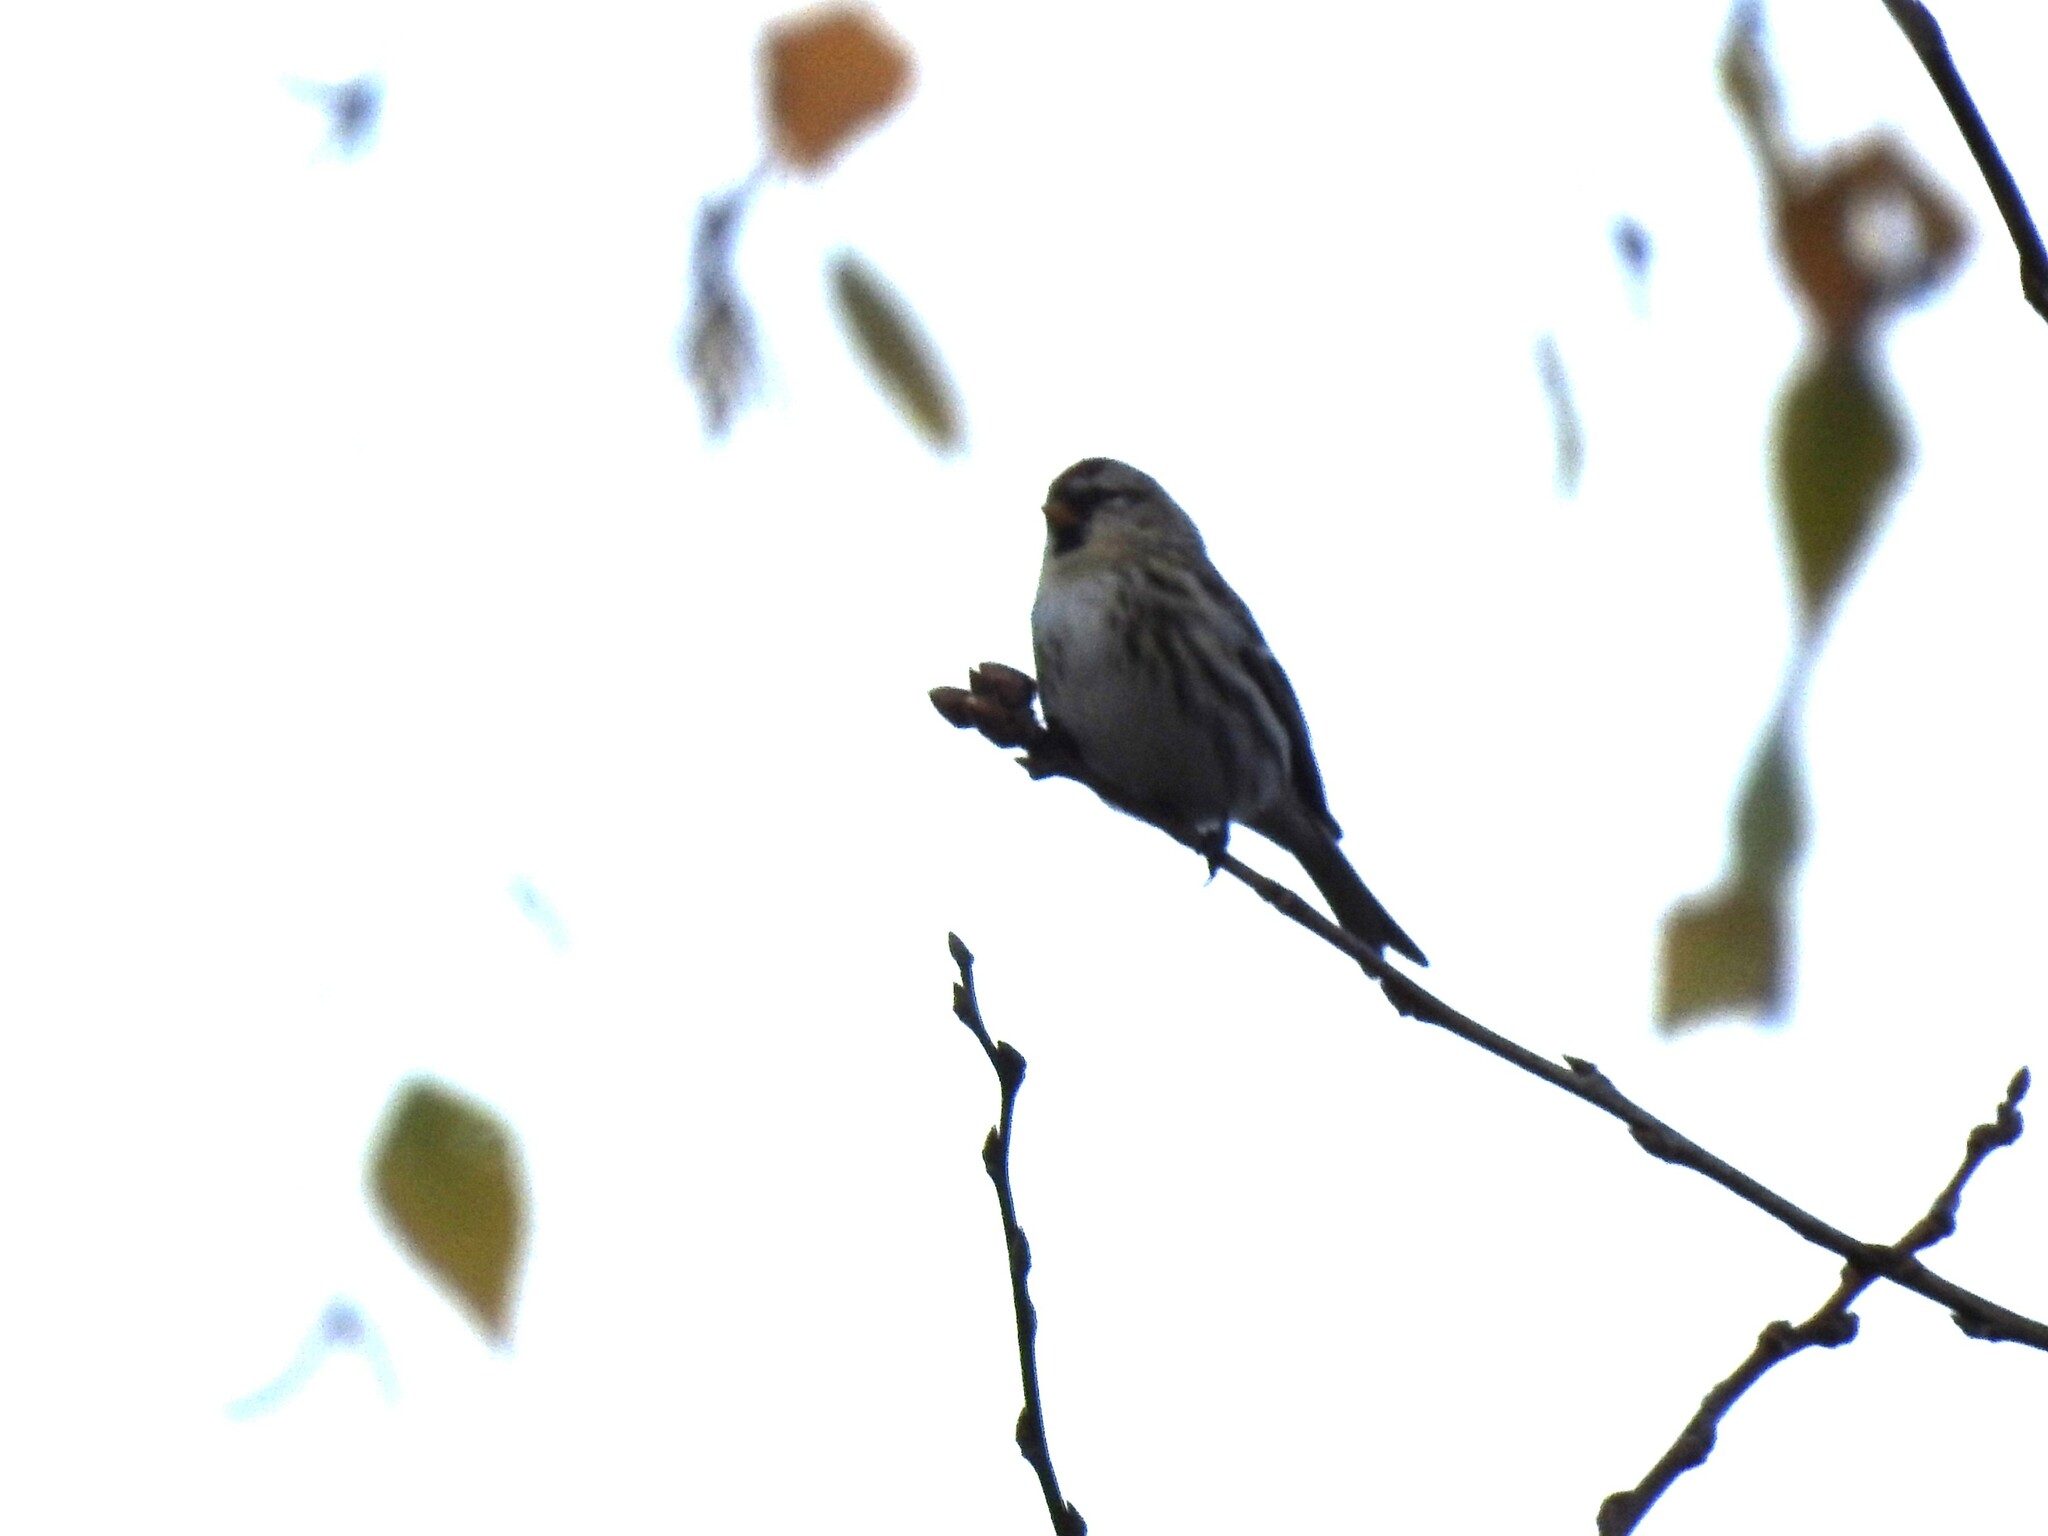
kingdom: Animalia
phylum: Chordata
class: Aves
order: Passeriformes
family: Fringillidae
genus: Acanthis
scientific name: Acanthis flammea
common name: Common redpoll
